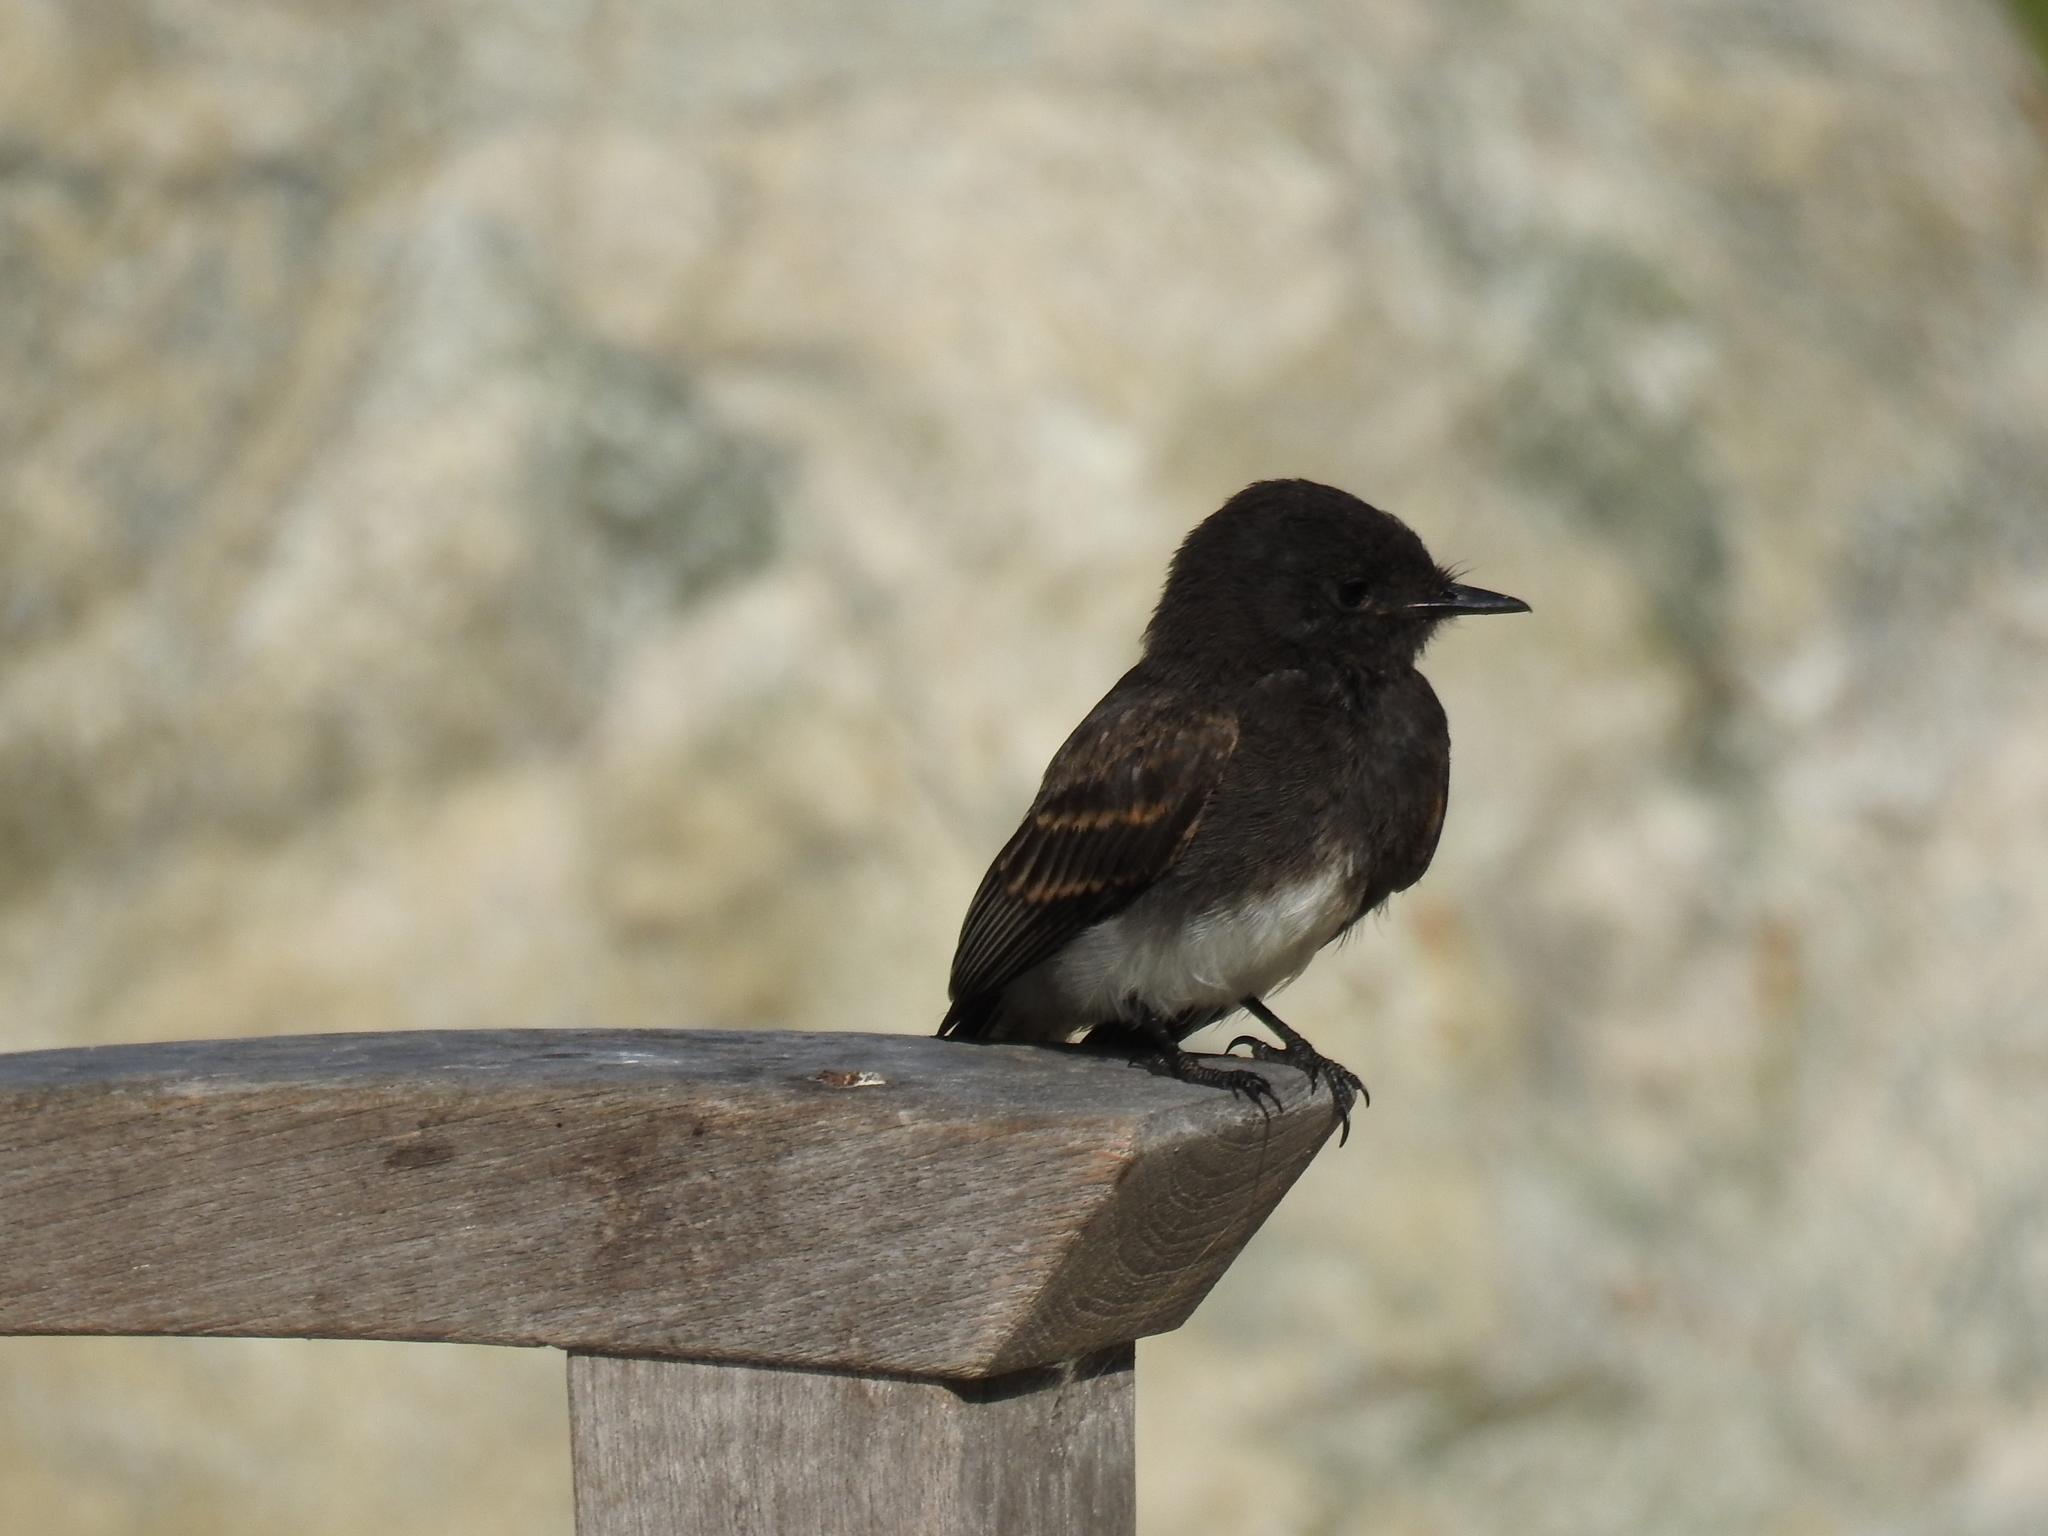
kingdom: Animalia
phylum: Chordata
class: Aves
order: Passeriformes
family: Tyrannidae
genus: Sayornis
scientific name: Sayornis nigricans
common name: Black phoebe
